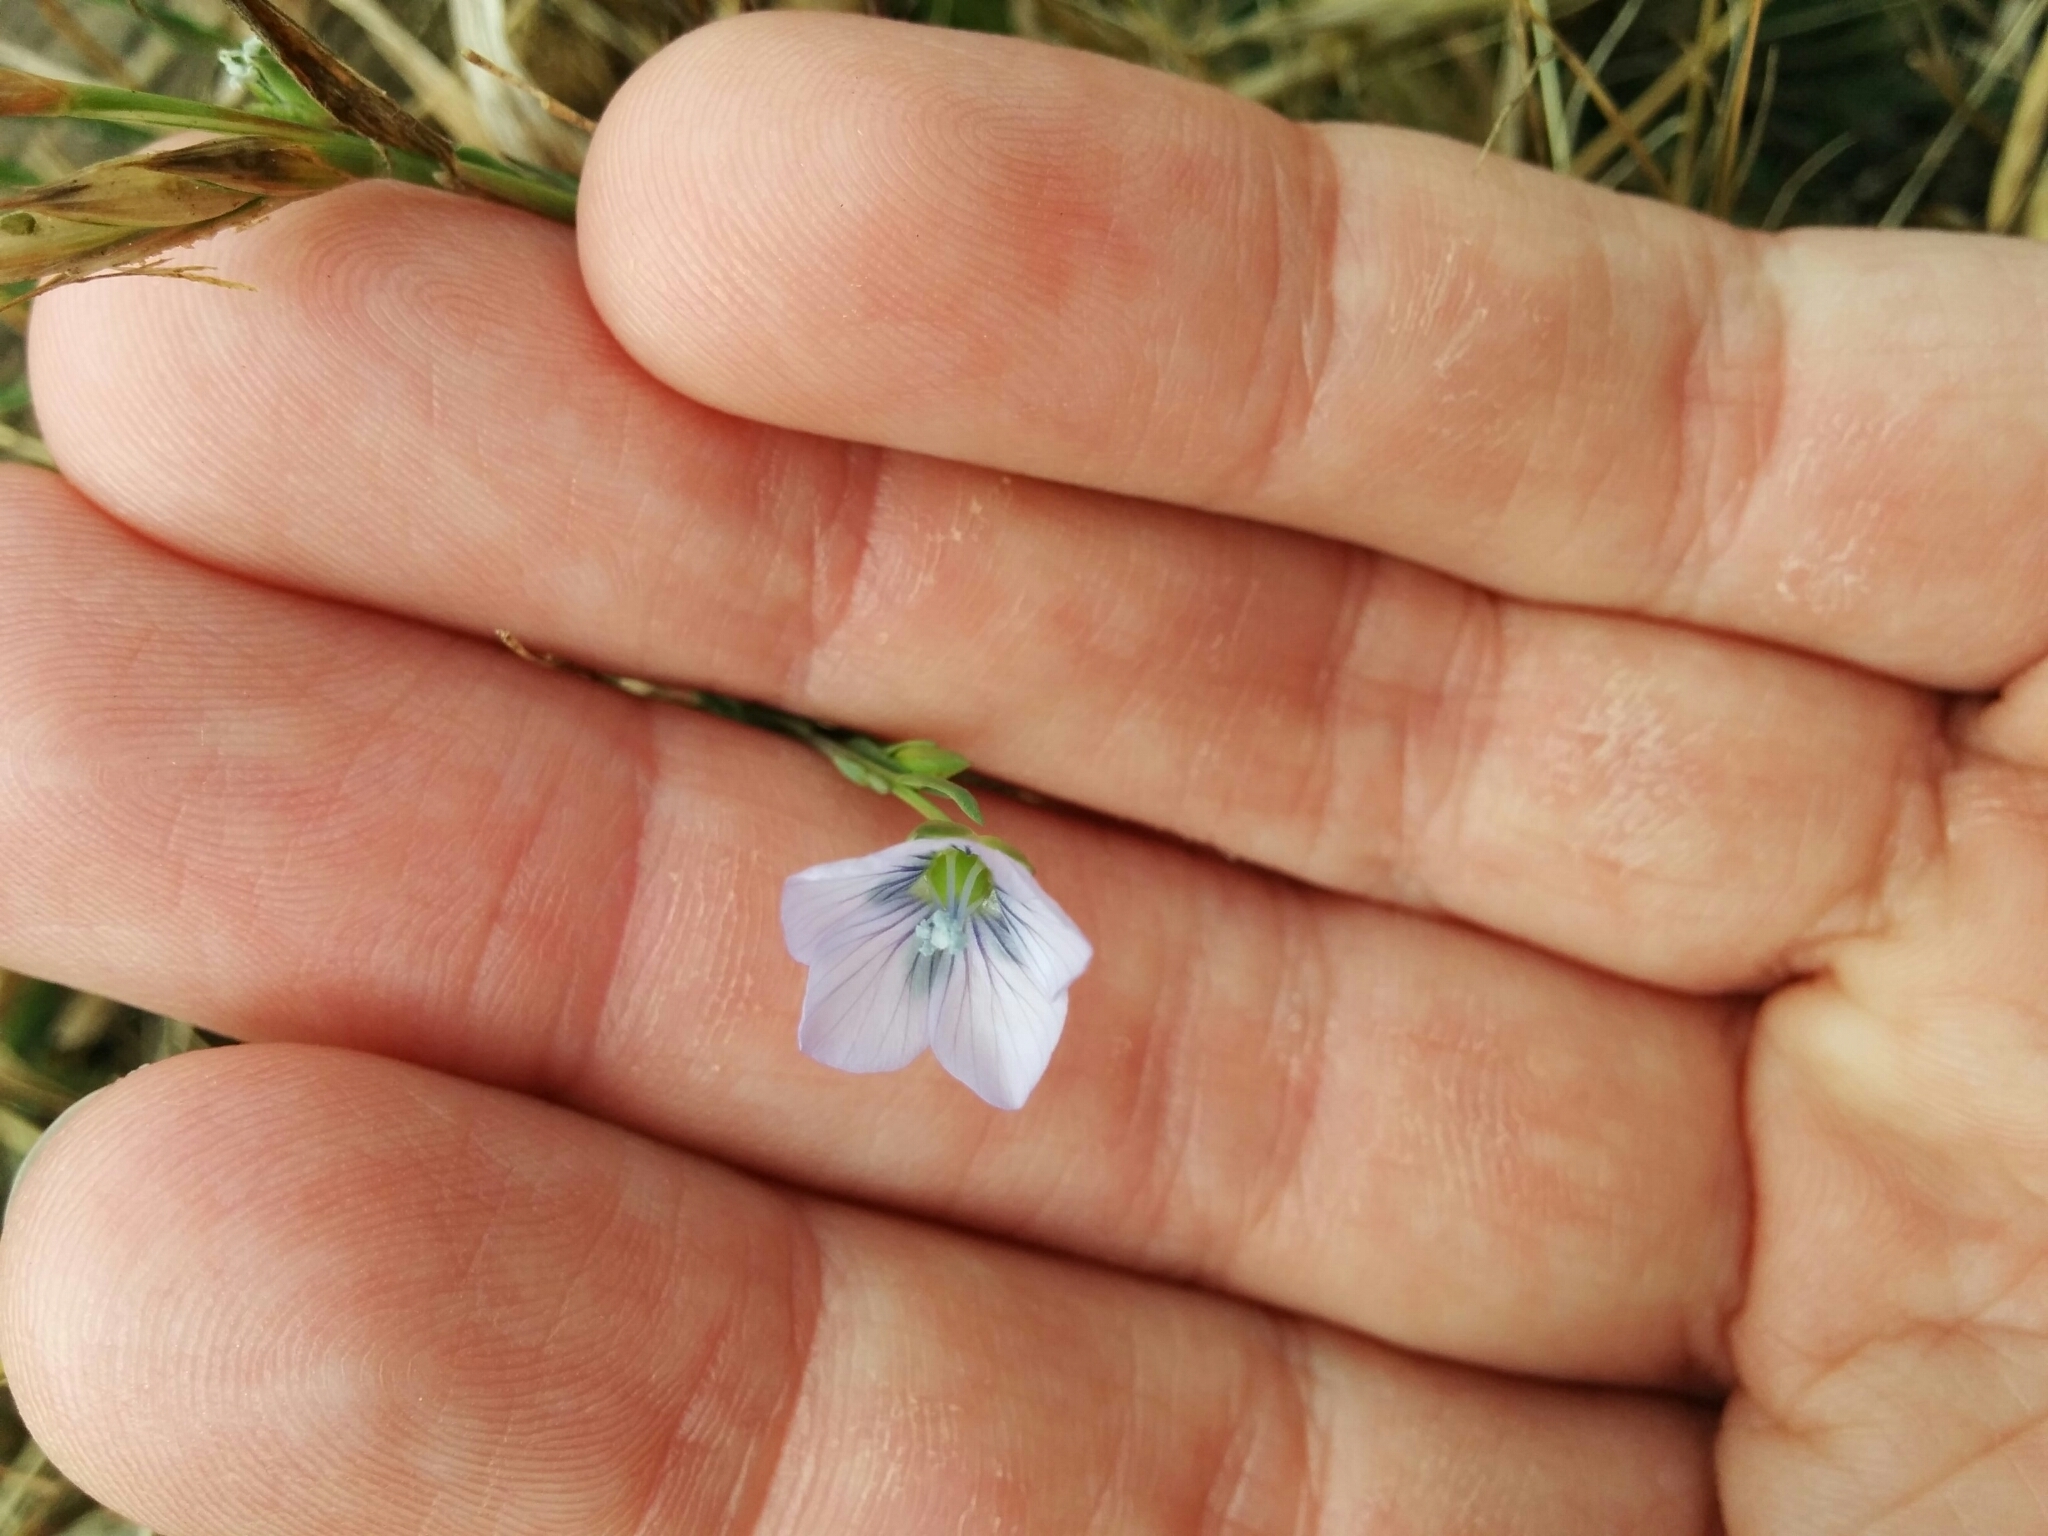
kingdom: Plantae
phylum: Tracheophyta
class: Magnoliopsida
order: Malpighiales
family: Linaceae
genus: Linum
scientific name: Linum bienne
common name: Pale flax
